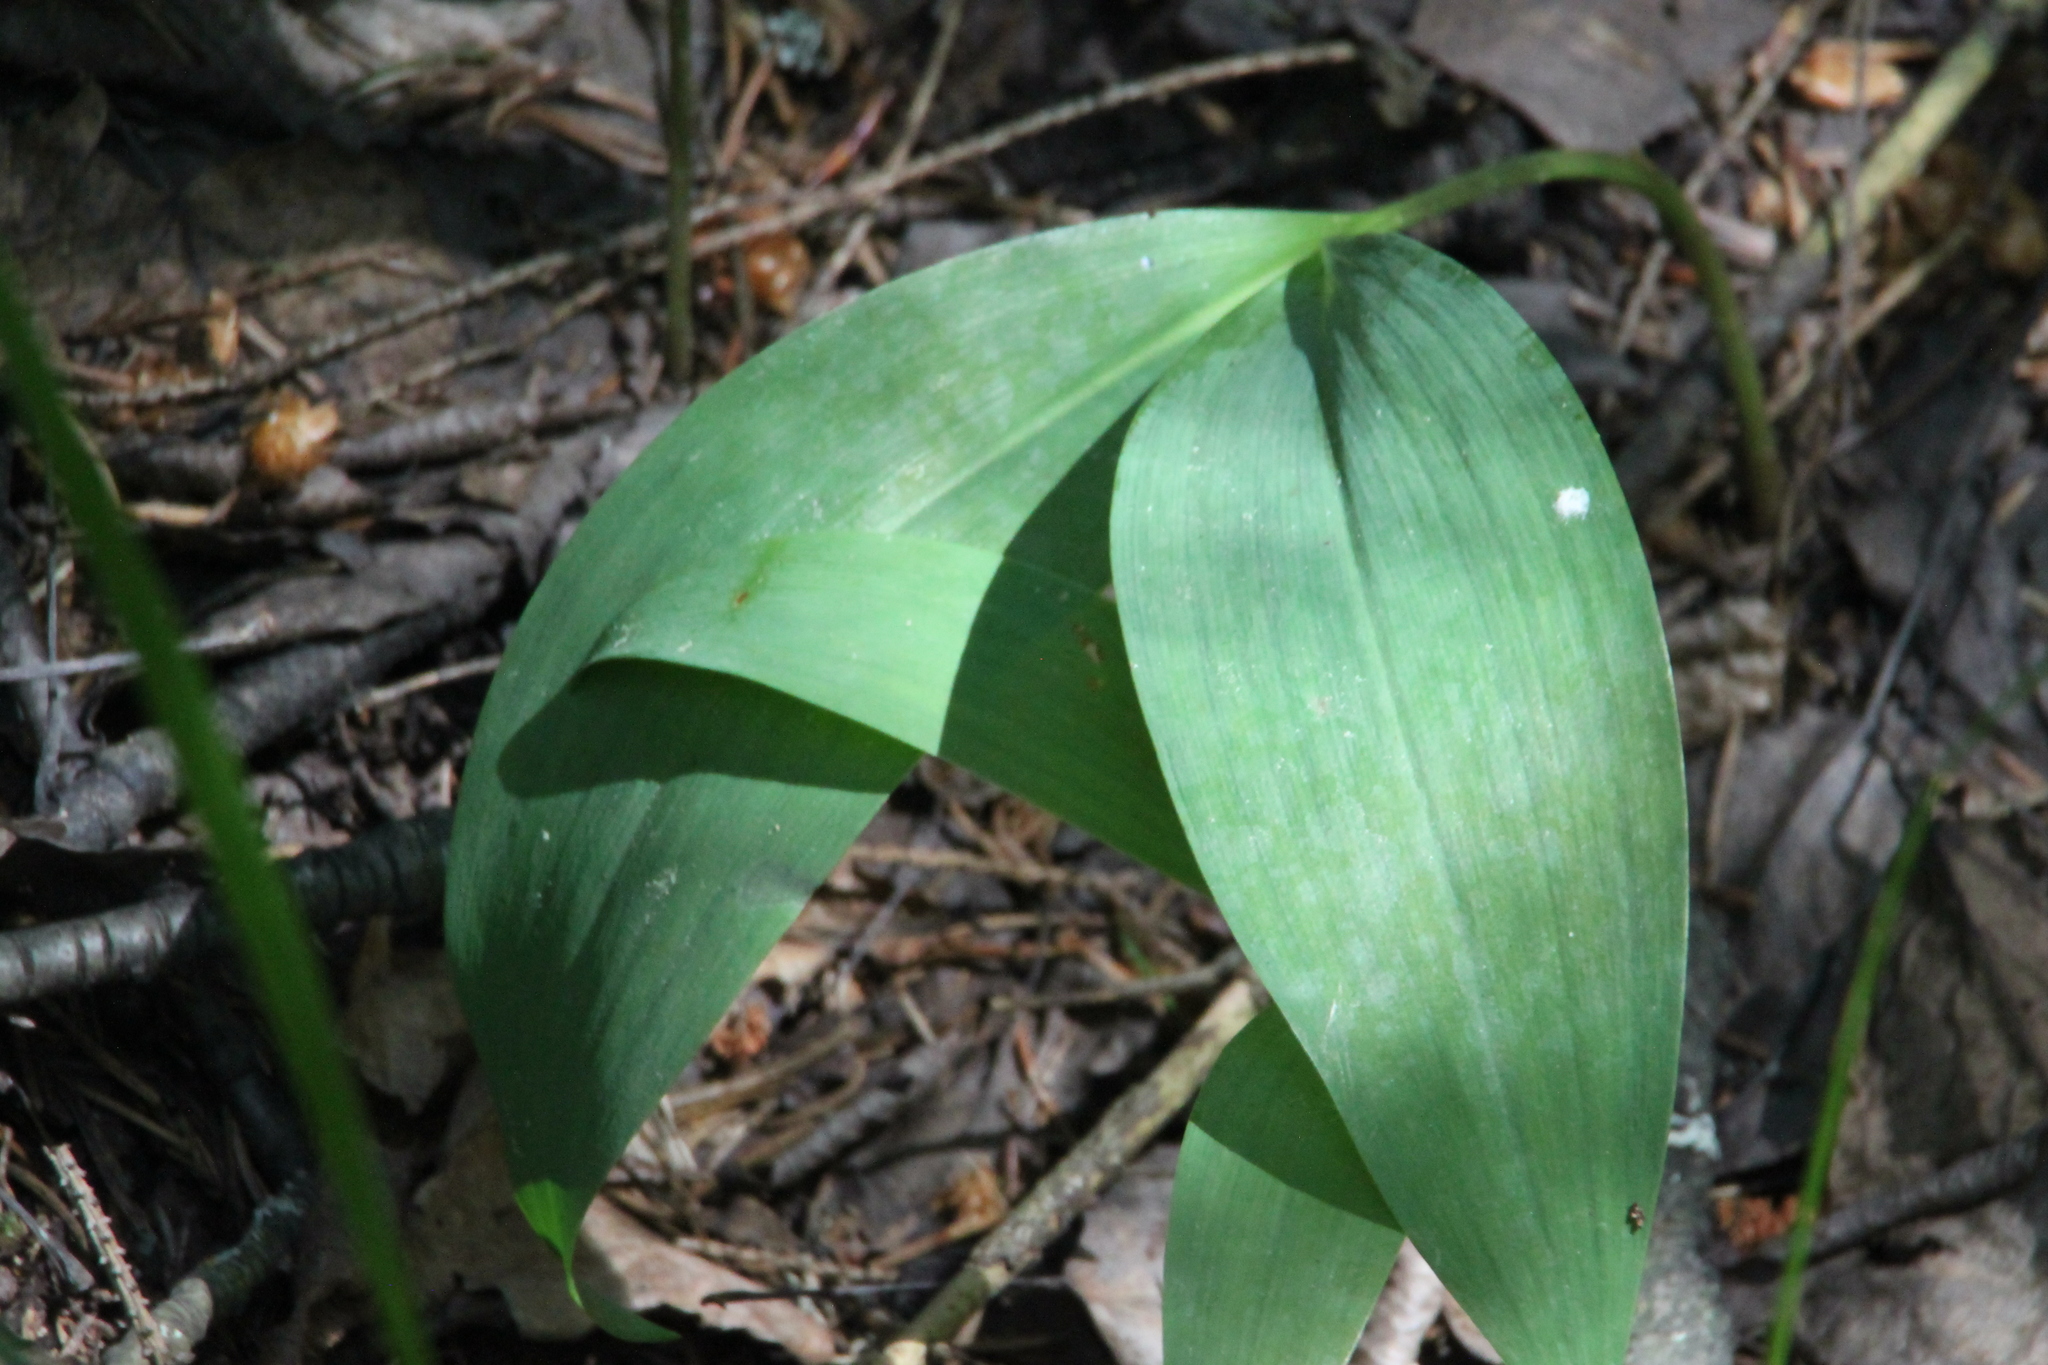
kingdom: Plantae
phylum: Tracheophyta
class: Liliopsida
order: Asparagales
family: Asparagaceae
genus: Convallaria
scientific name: Convallaria majalis
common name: Lily-of-the-valley
